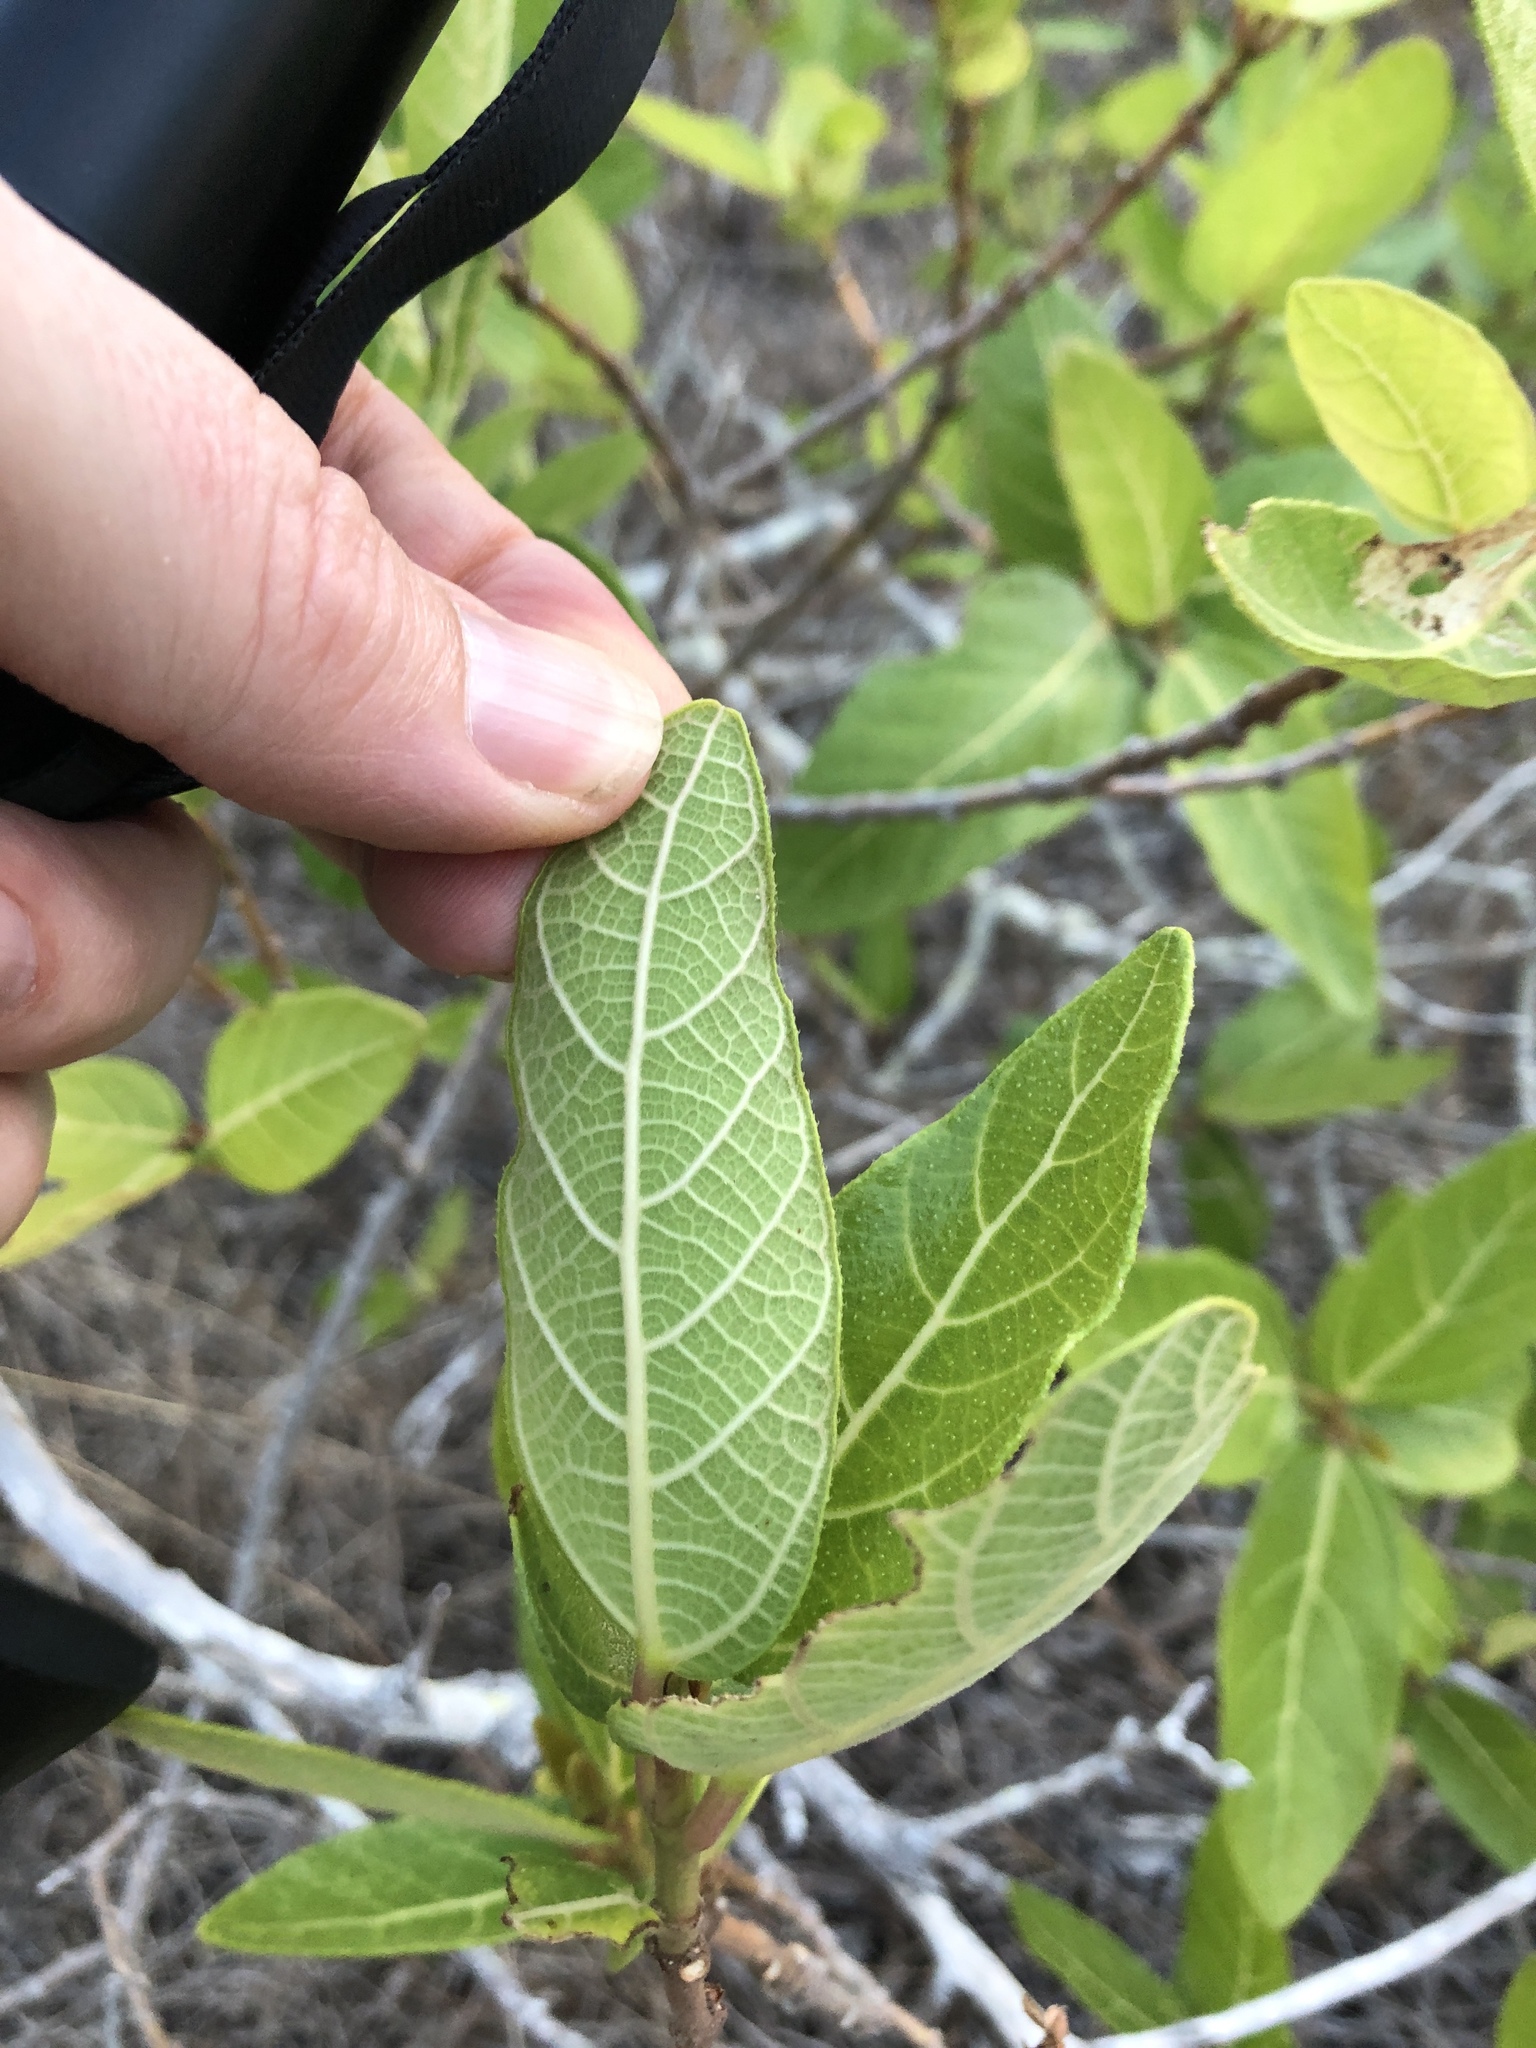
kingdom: Plantae
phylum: Tracheophyta
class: Magnoliopsida
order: Rosales
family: Moraceae
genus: Ficus
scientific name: Ficus opposita
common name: Figwood
